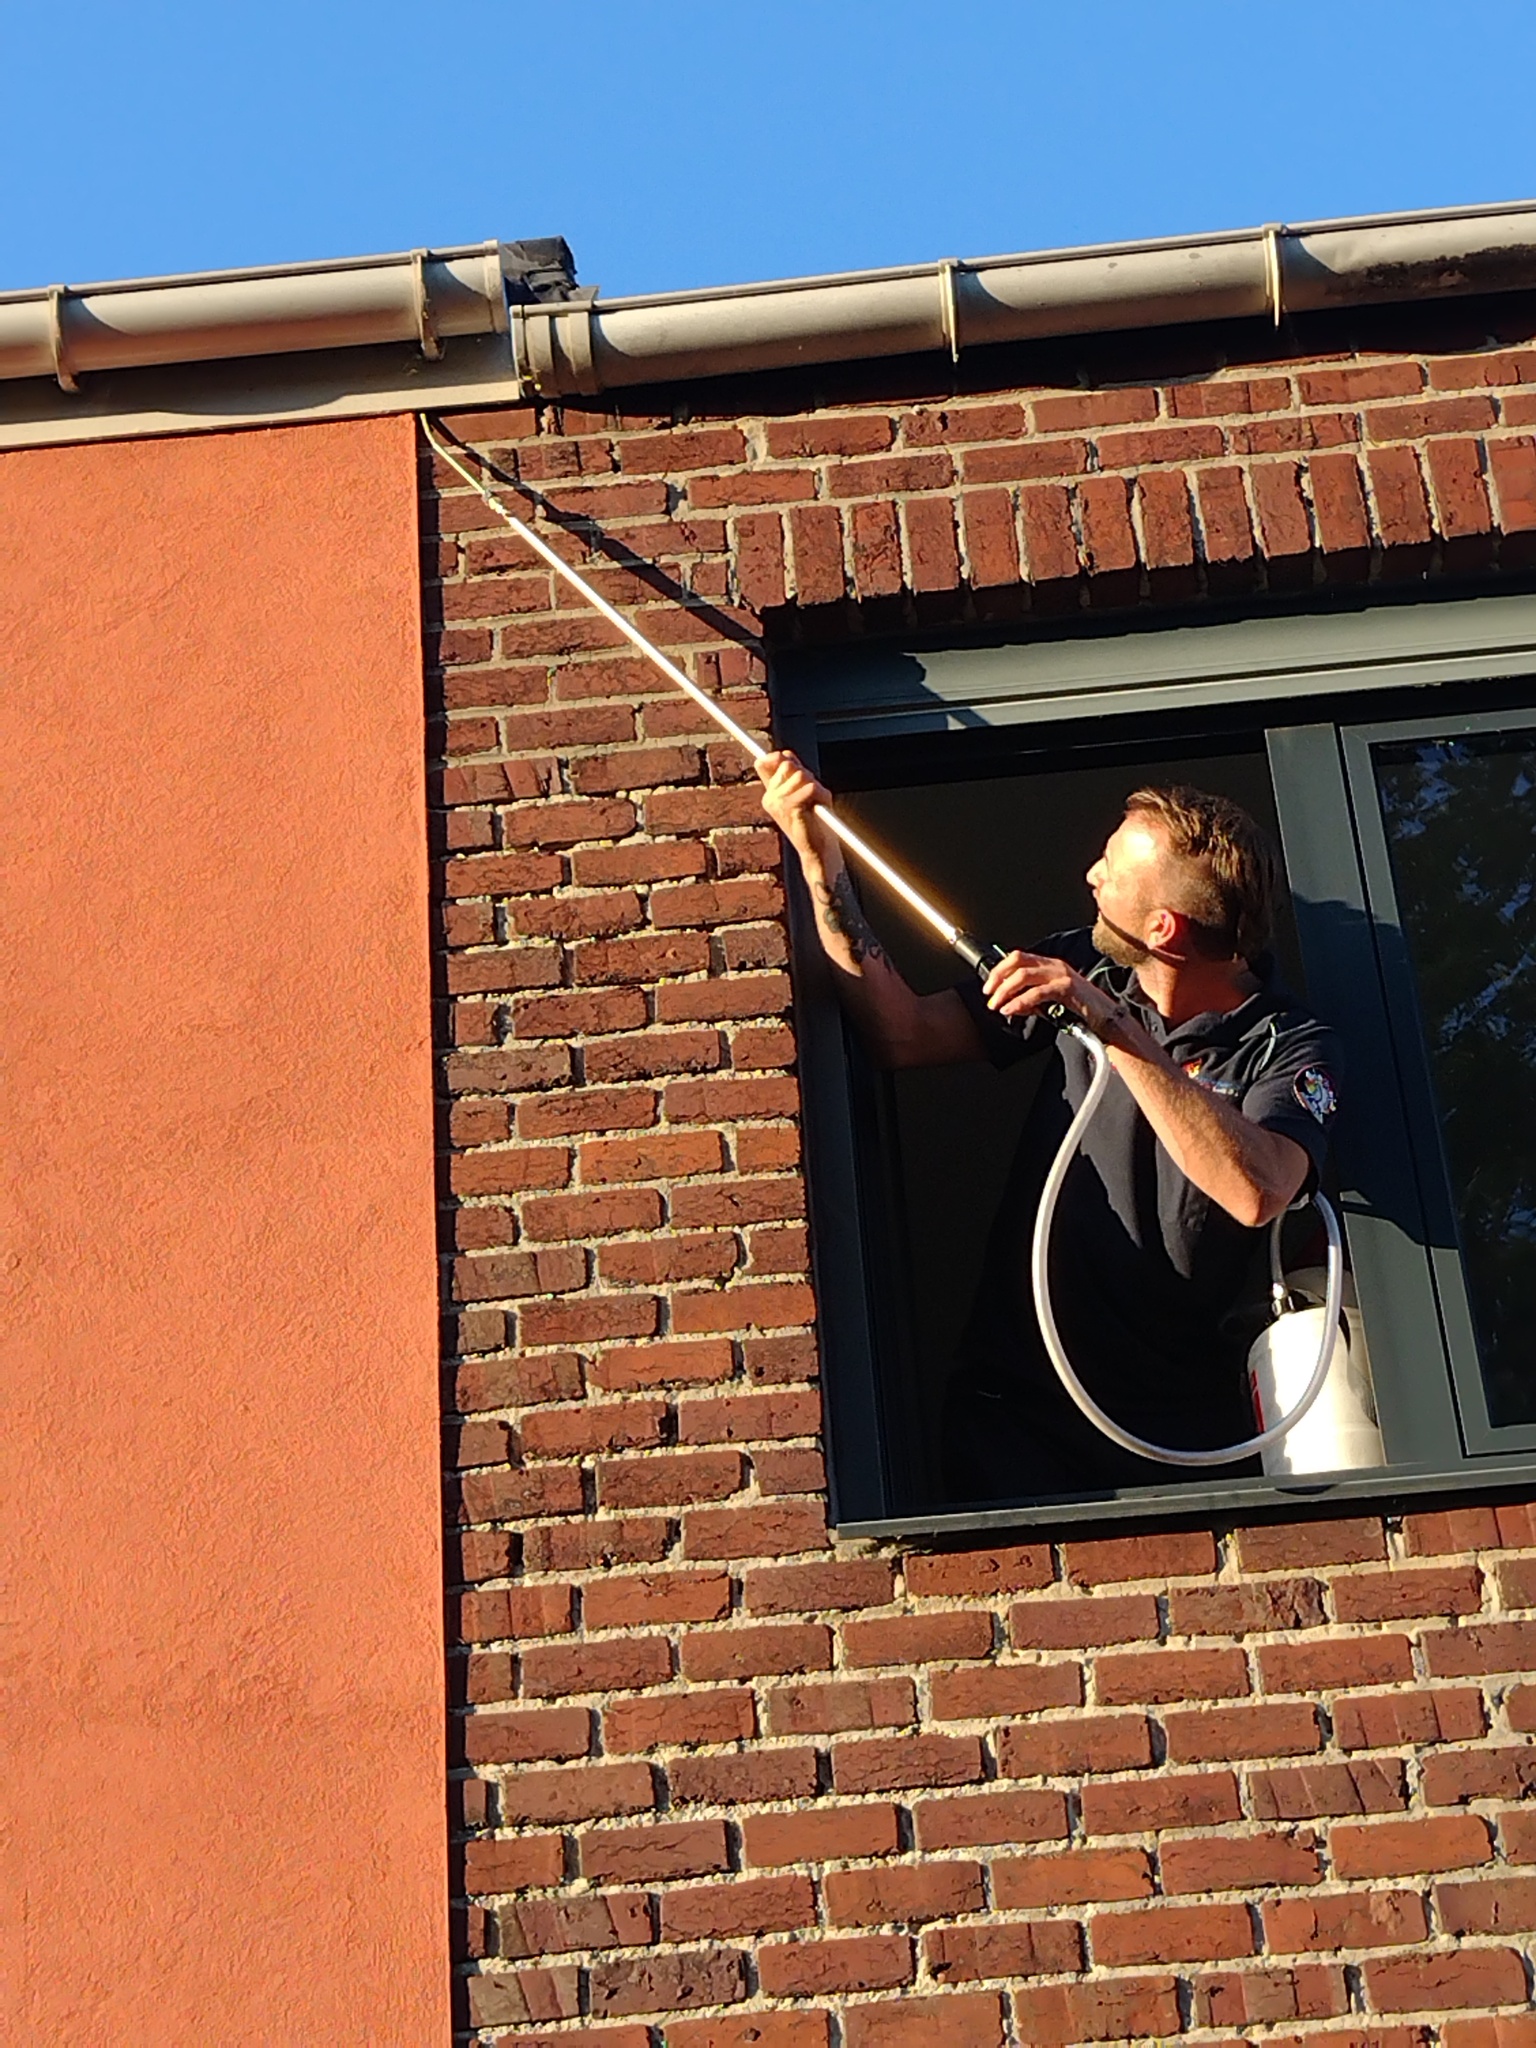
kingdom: Animalia
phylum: Arthropoda
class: Insecta
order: Hymenoptera
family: Vespidae
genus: Vespa
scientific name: Vespa velutina
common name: Asian hornet
